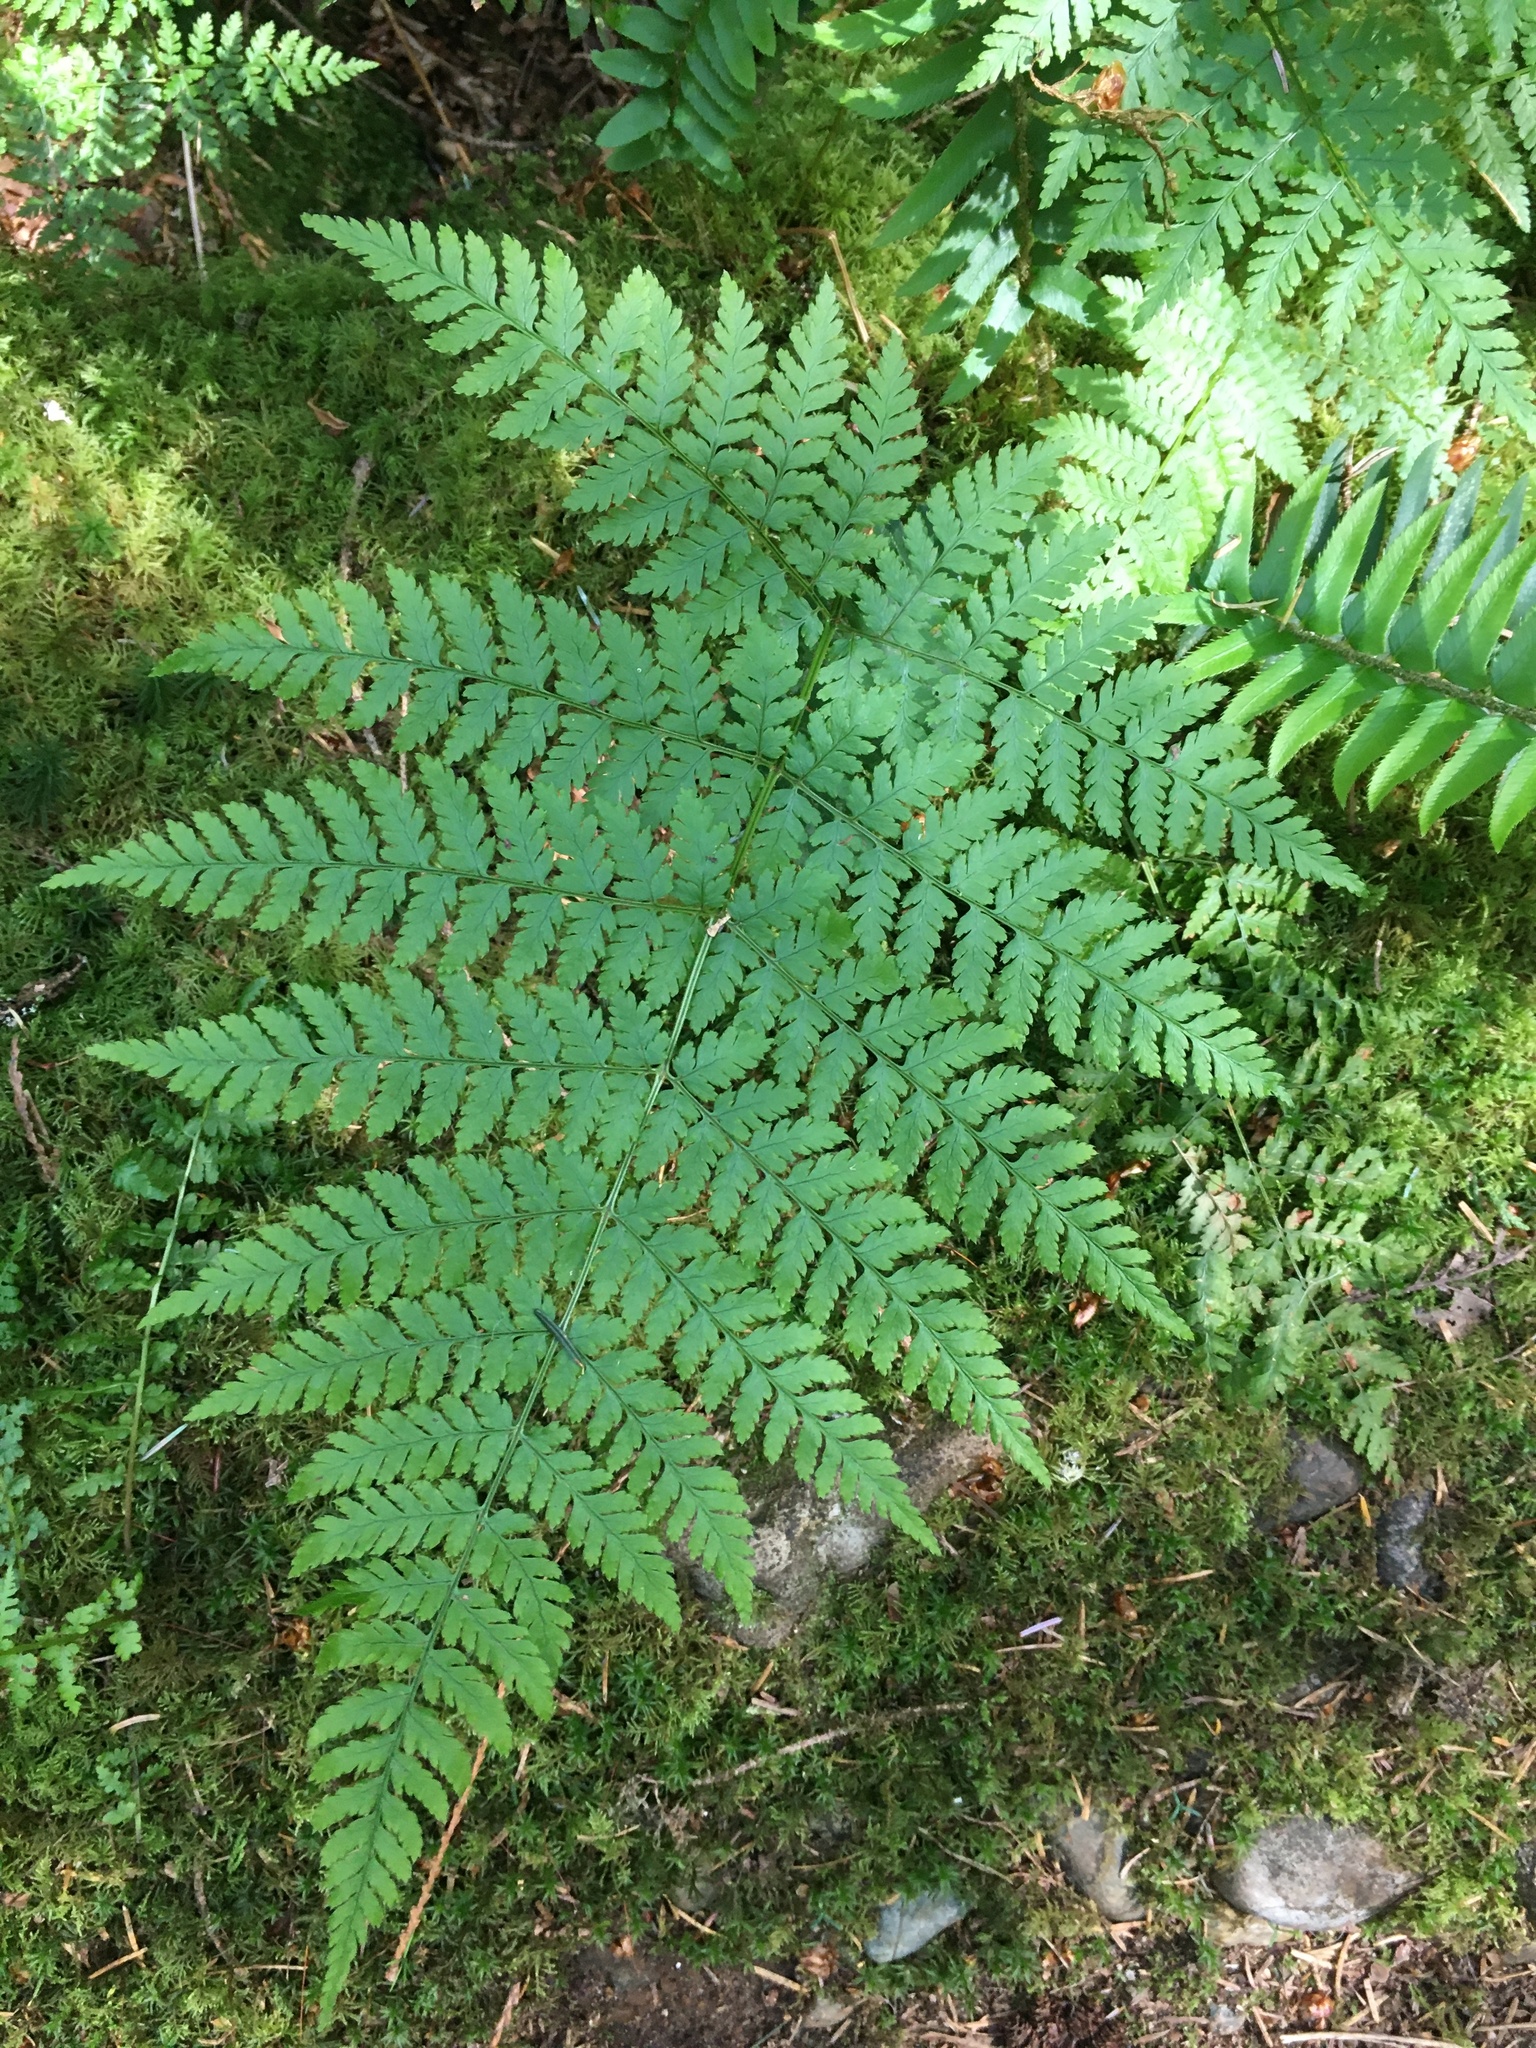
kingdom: Plantae
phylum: Tracheophyta
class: Polypodiopsida
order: Polypodiales
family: Dryopteridaceae
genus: Dryopteris
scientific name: Dryopteris expansa
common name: Northern buckler fern
